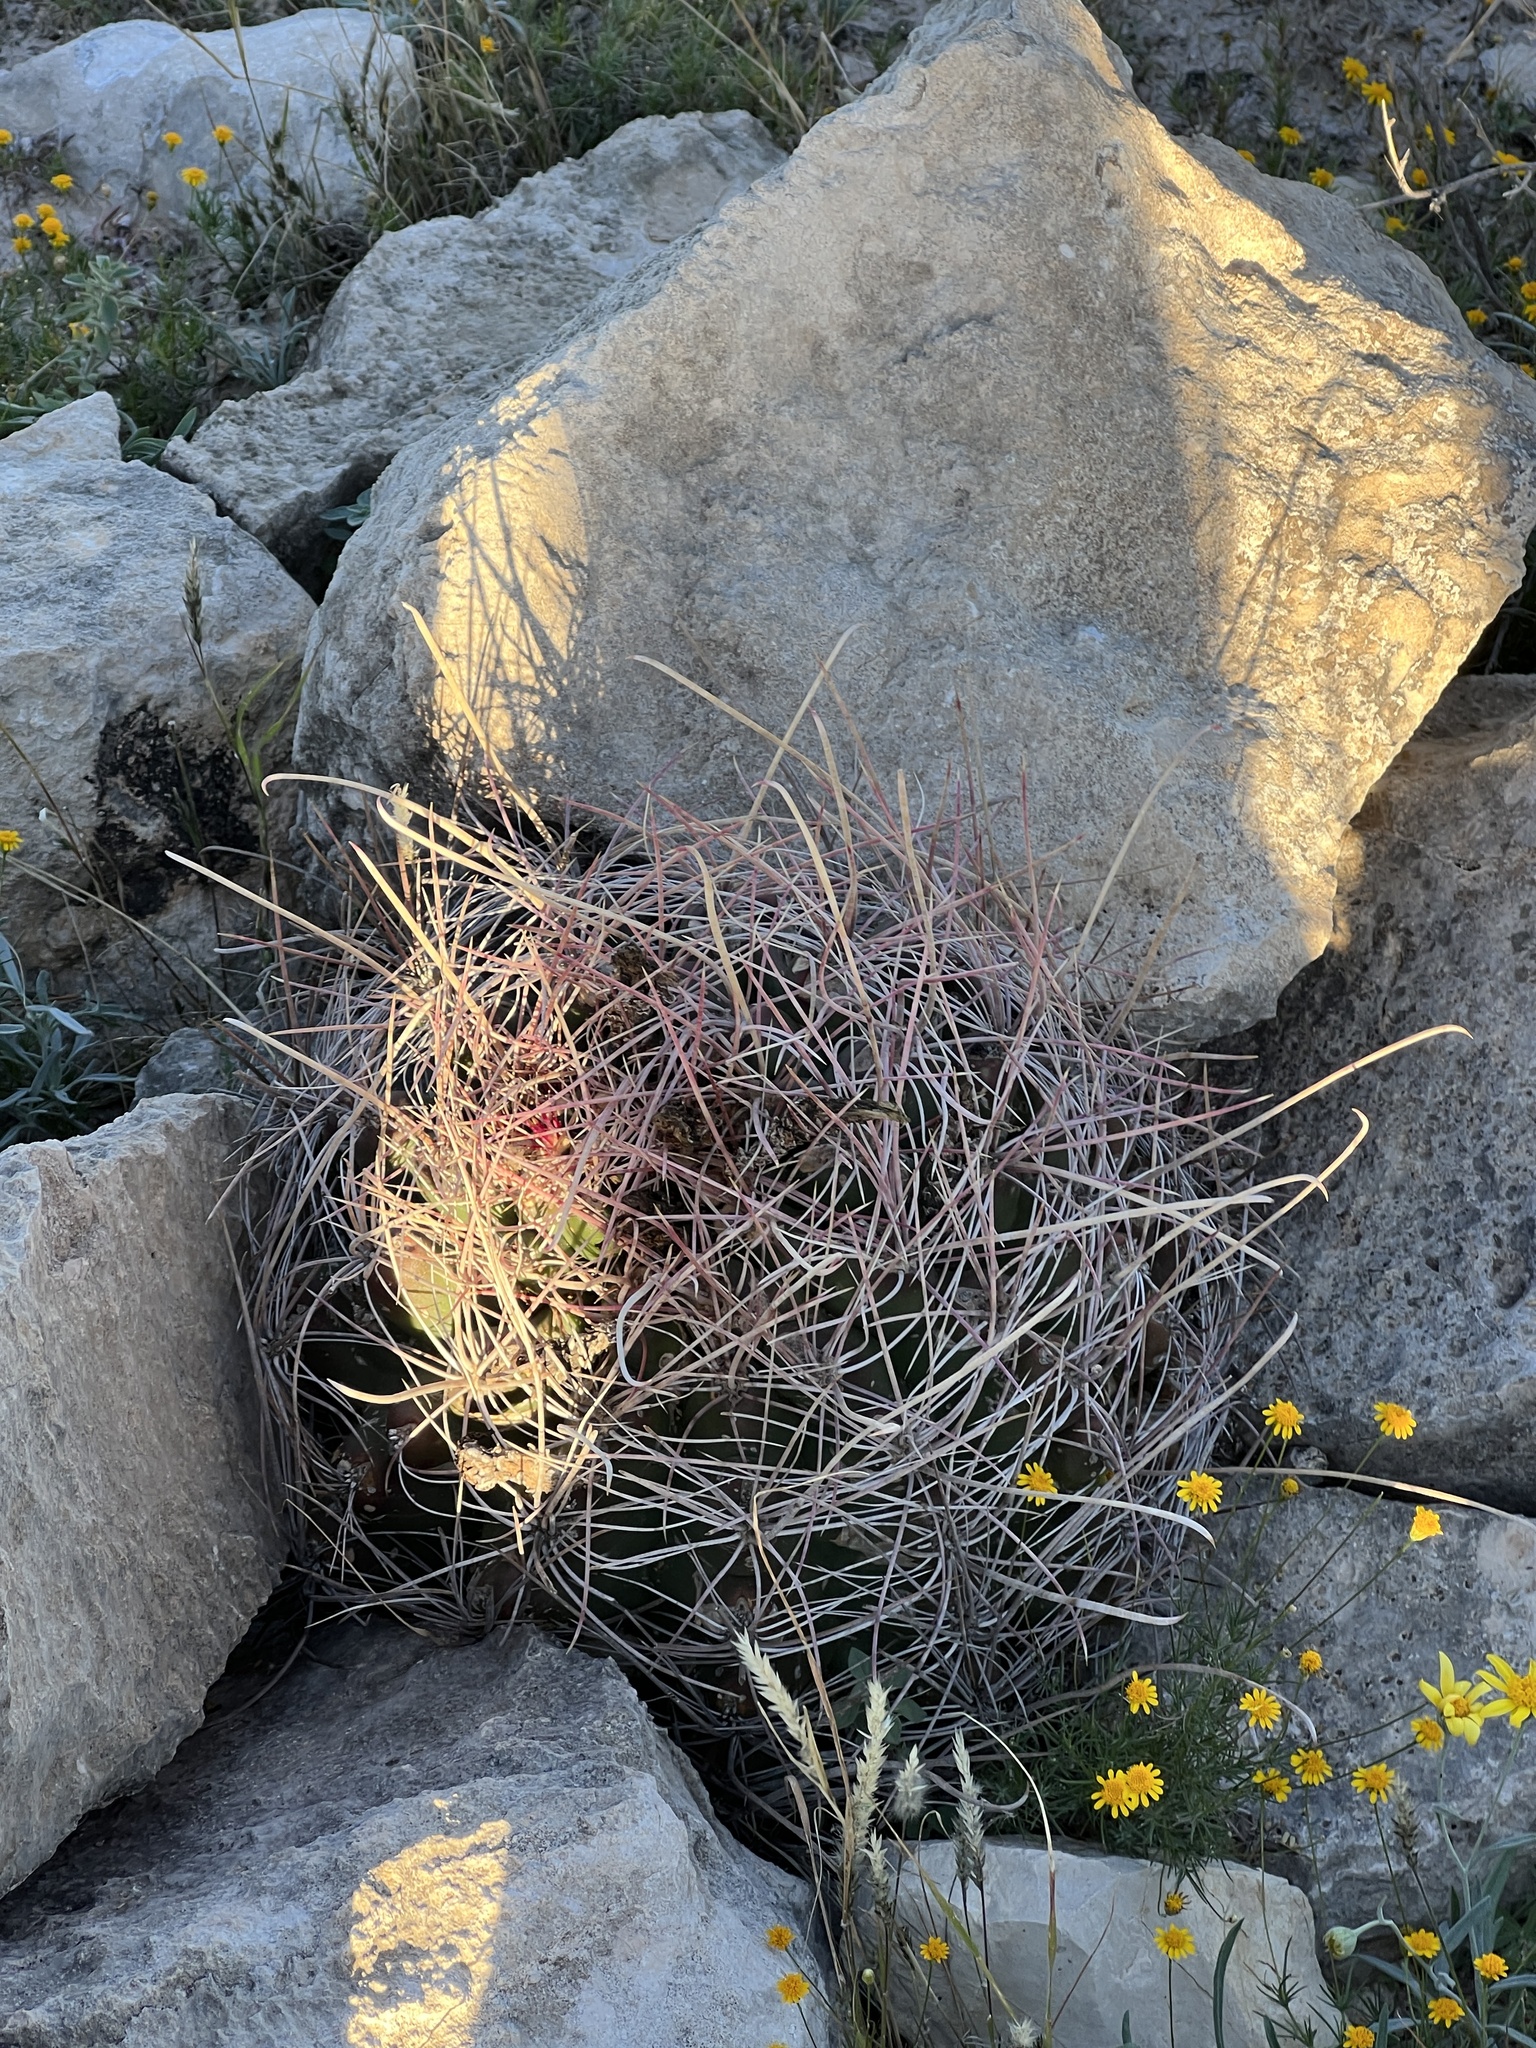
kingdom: Plantae
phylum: Tracheophyta
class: Magnoliopsida
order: Caryophyllales
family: Cactaceae
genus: Bisnaga
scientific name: Bisnaga hamatacantha
